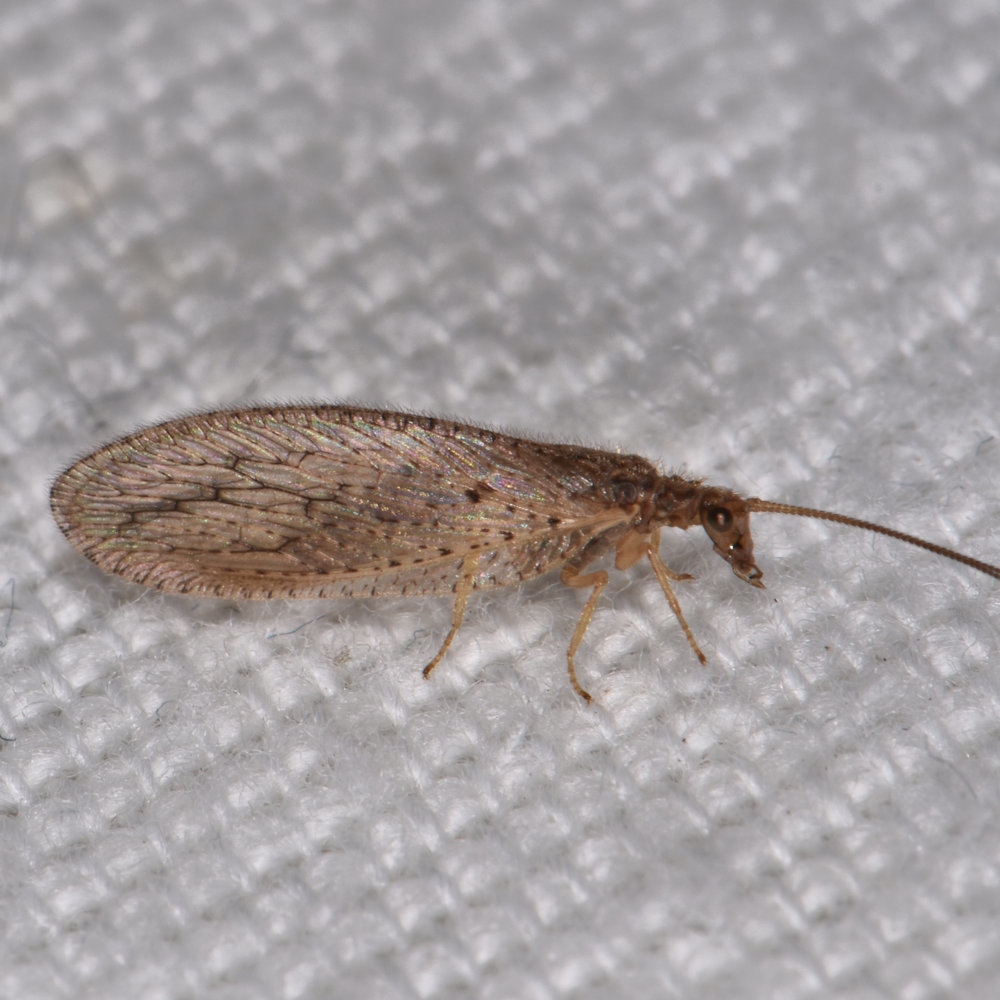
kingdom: Animalia
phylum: Arthropoda
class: Insecta
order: Neuroptera
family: Hemerobiidae
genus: Micromus
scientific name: Micromus subanticus
